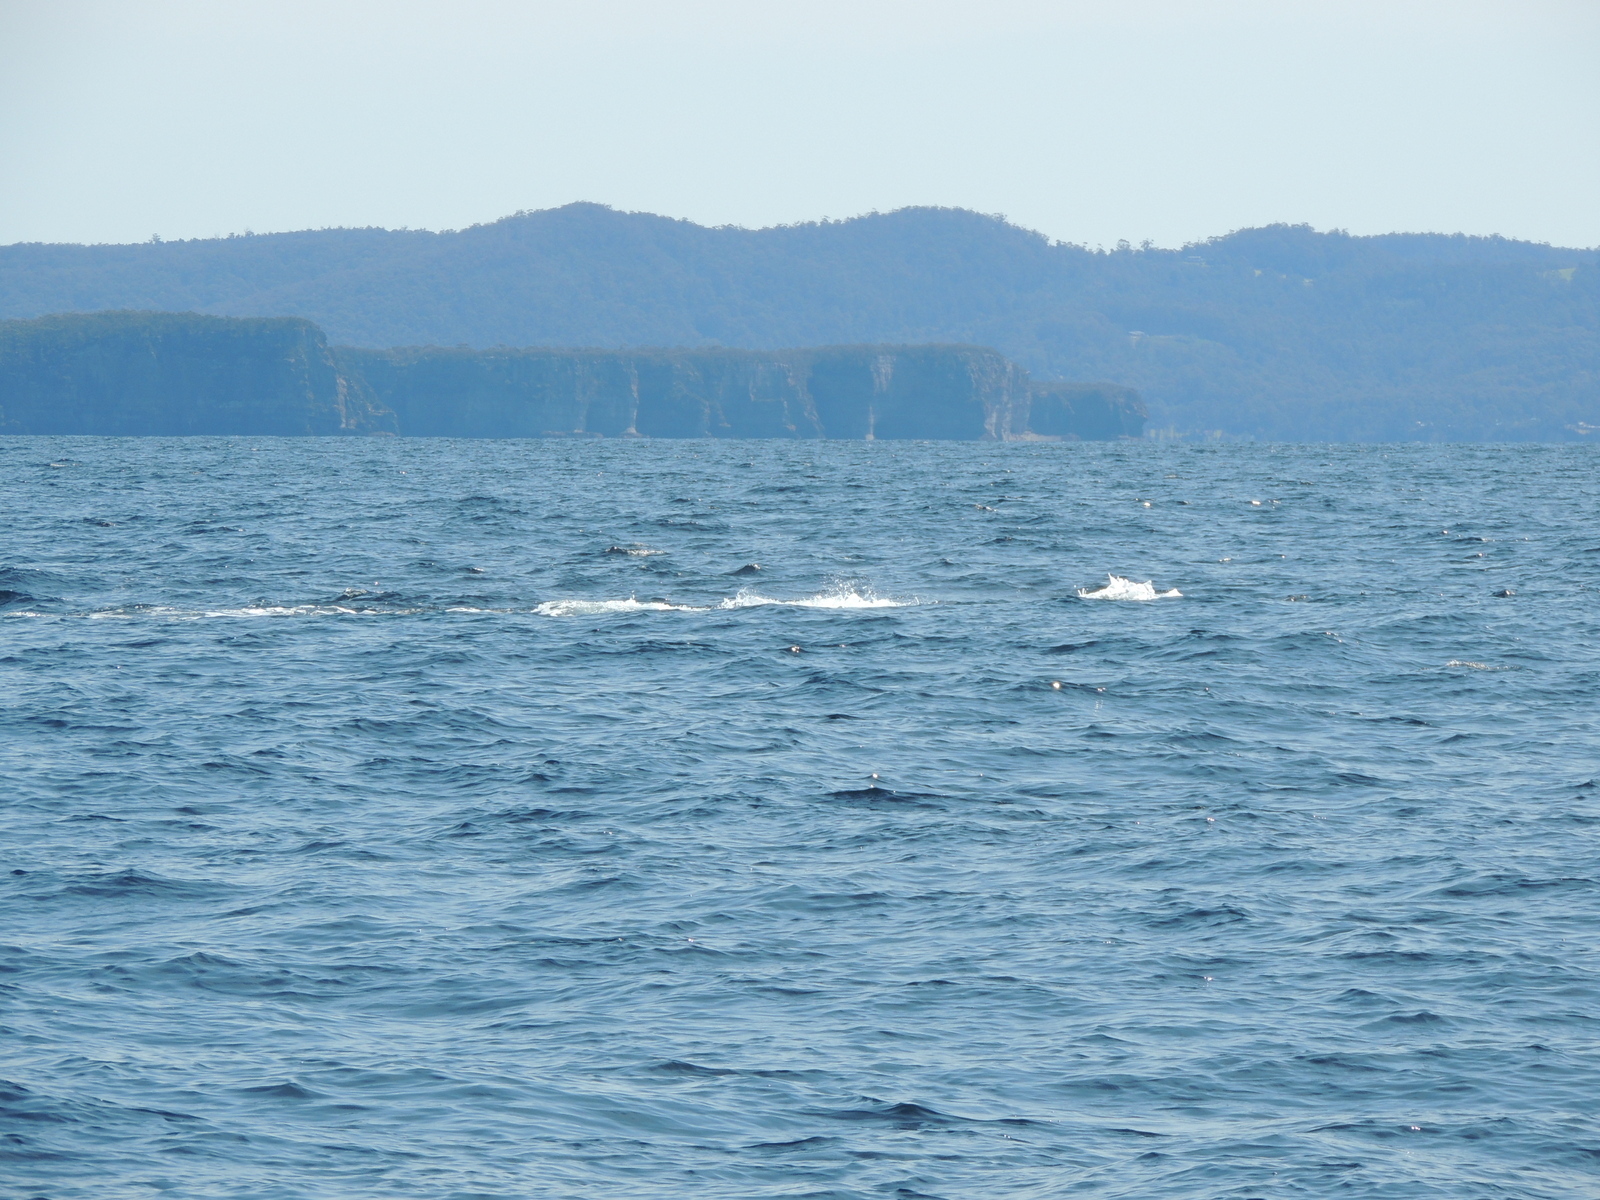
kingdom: Animalia
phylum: Chordata
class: Mammalia
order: Cetacea
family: Balaenopteridae
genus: Megaptera
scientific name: Megaptera novaeangliae
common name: Humpback whale
